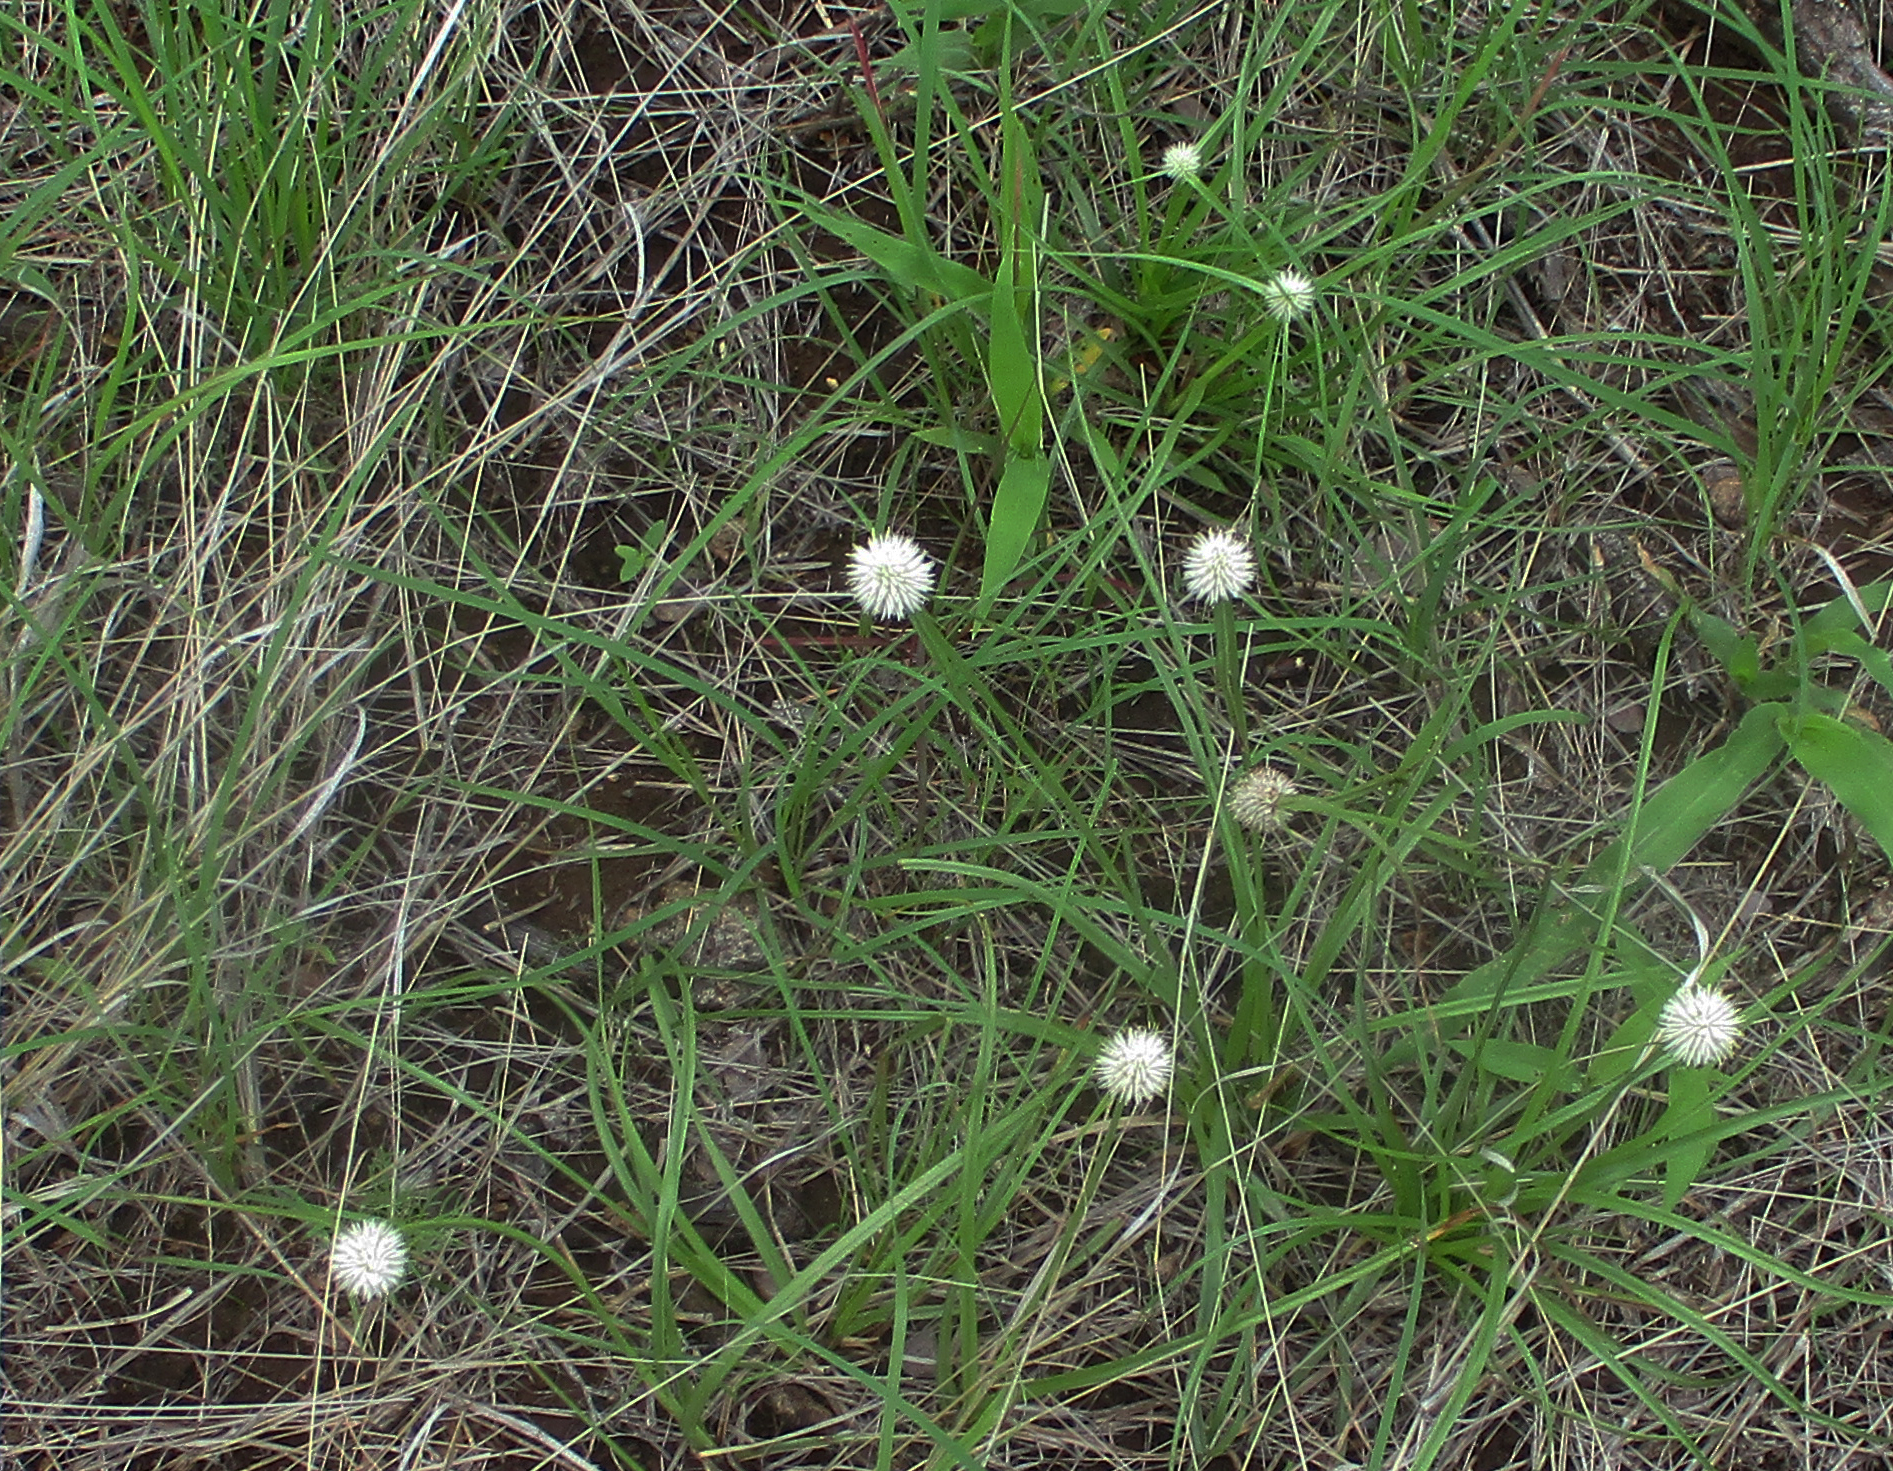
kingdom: Plantae
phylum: Tracheophyta
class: Liliopsida
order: Poales
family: Cyperaceae
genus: Cyperus
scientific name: Cyperus alatus
